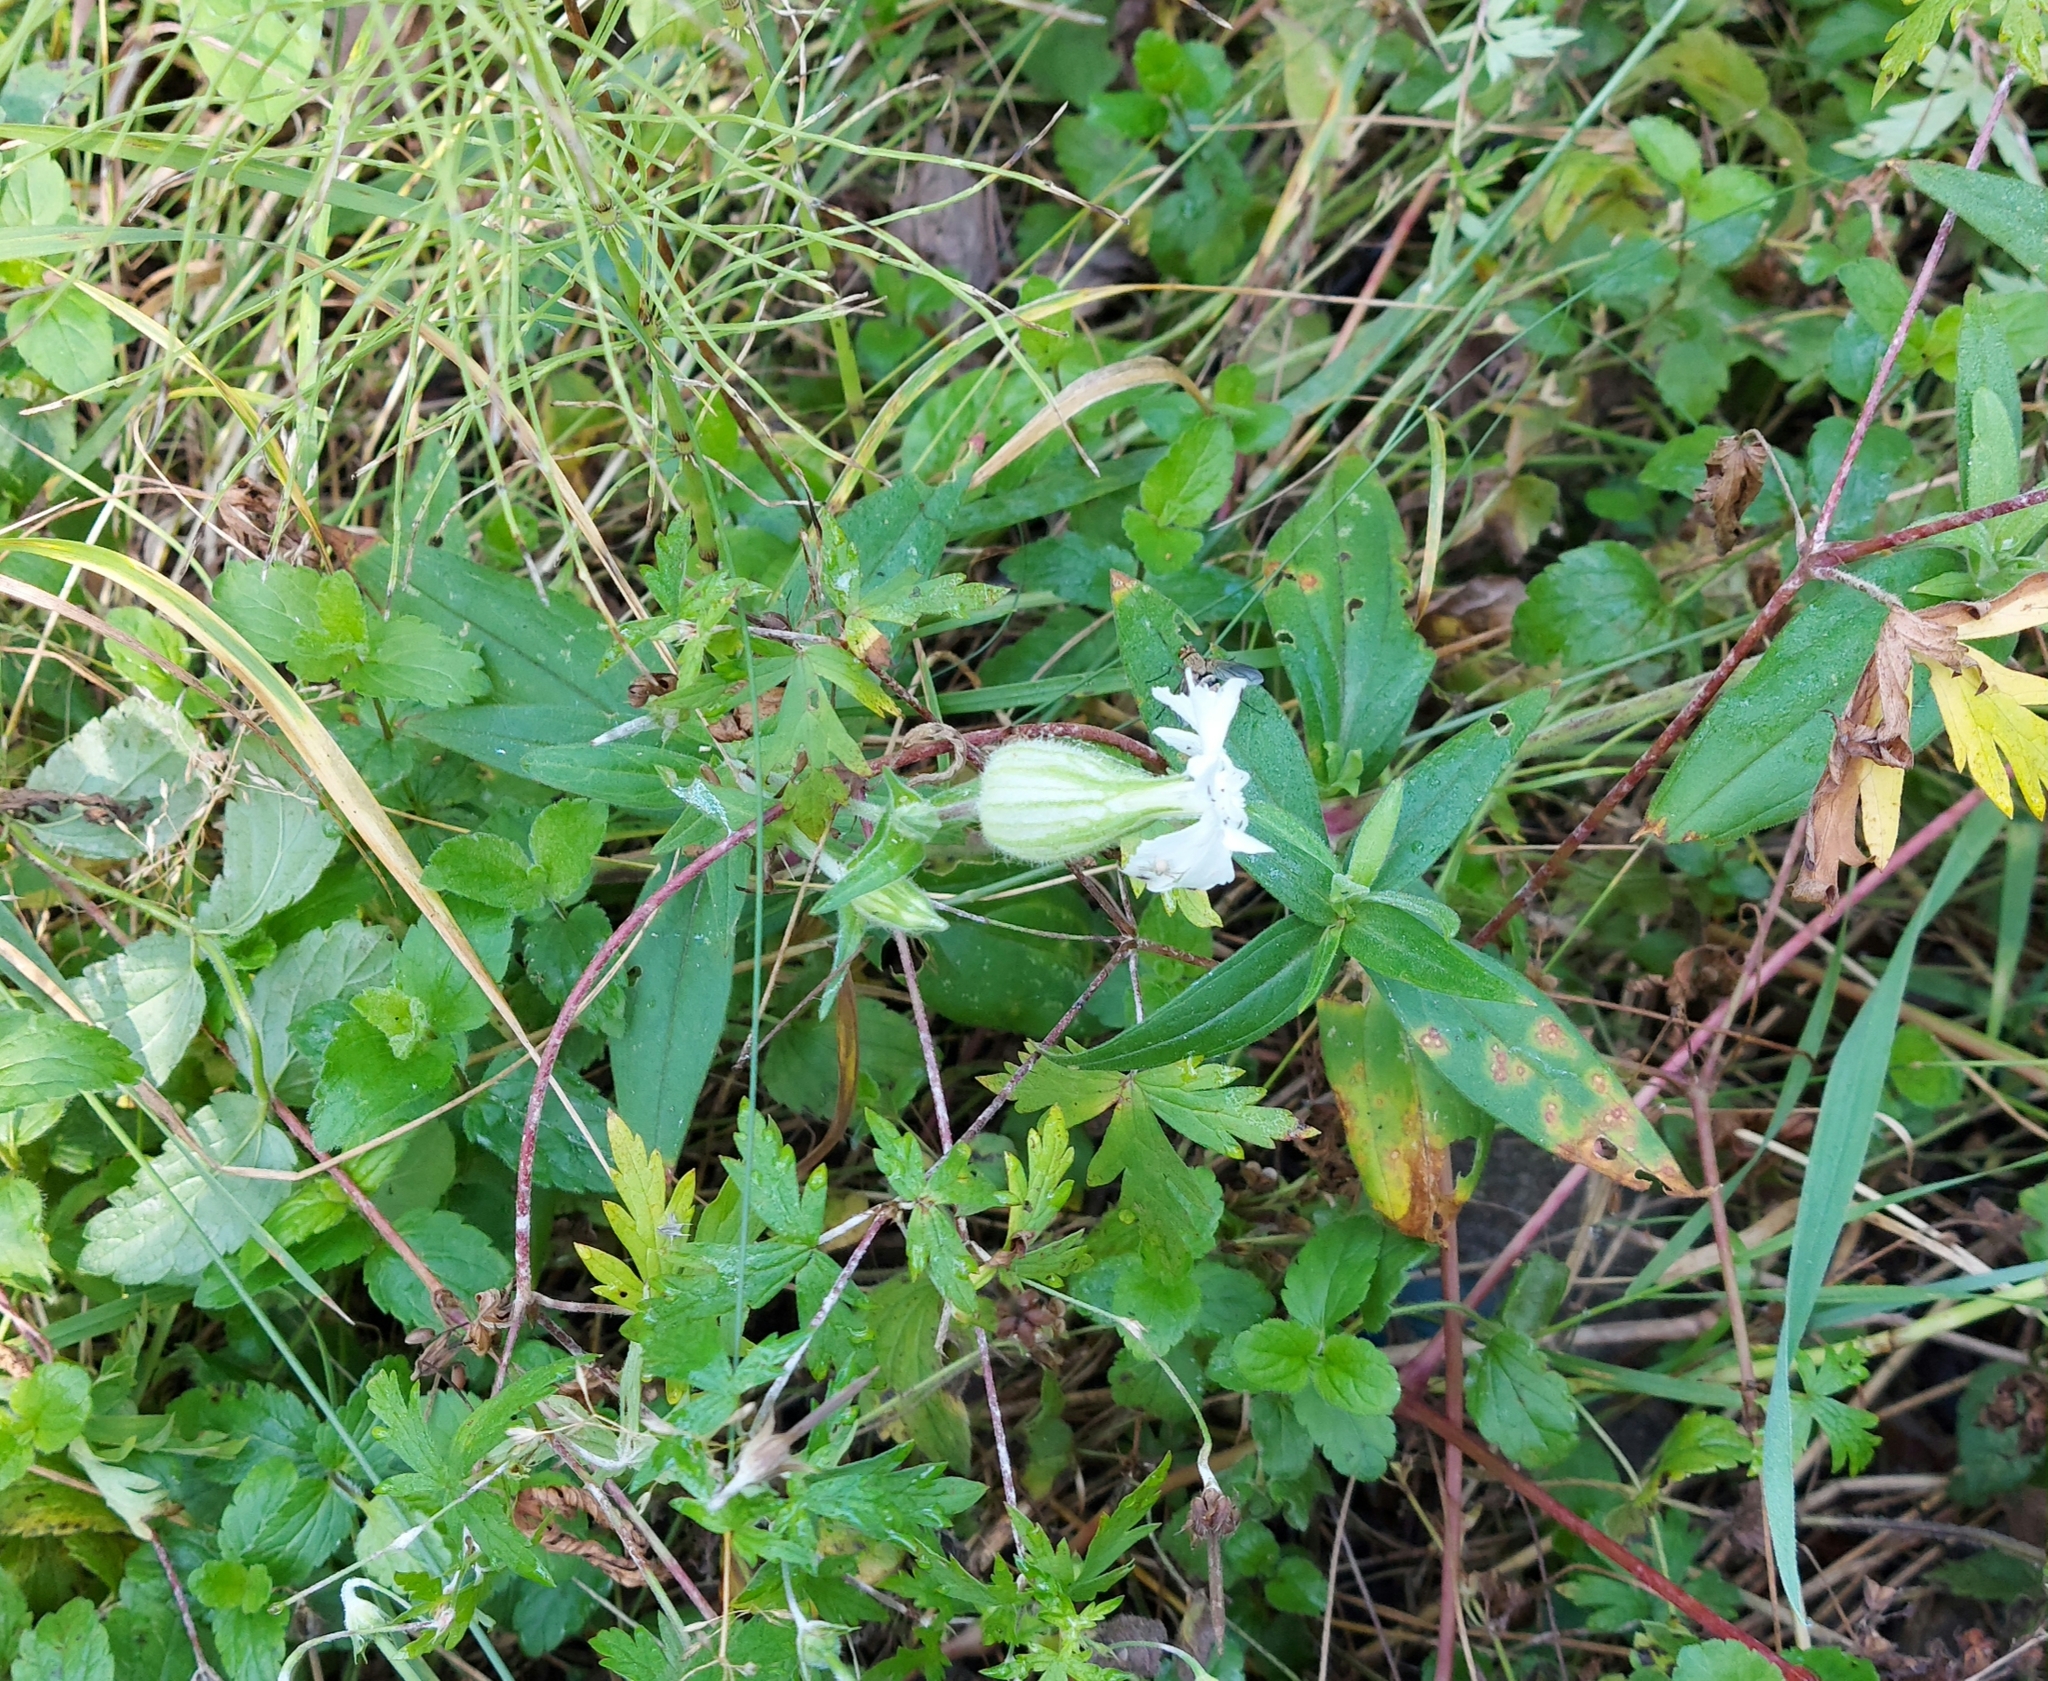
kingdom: Plantae
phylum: Tracheophyta
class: Magnoliopsida
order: Caryophyllales
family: Caryophyllaceae
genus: Silene
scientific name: Silene latifolia
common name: White campion
